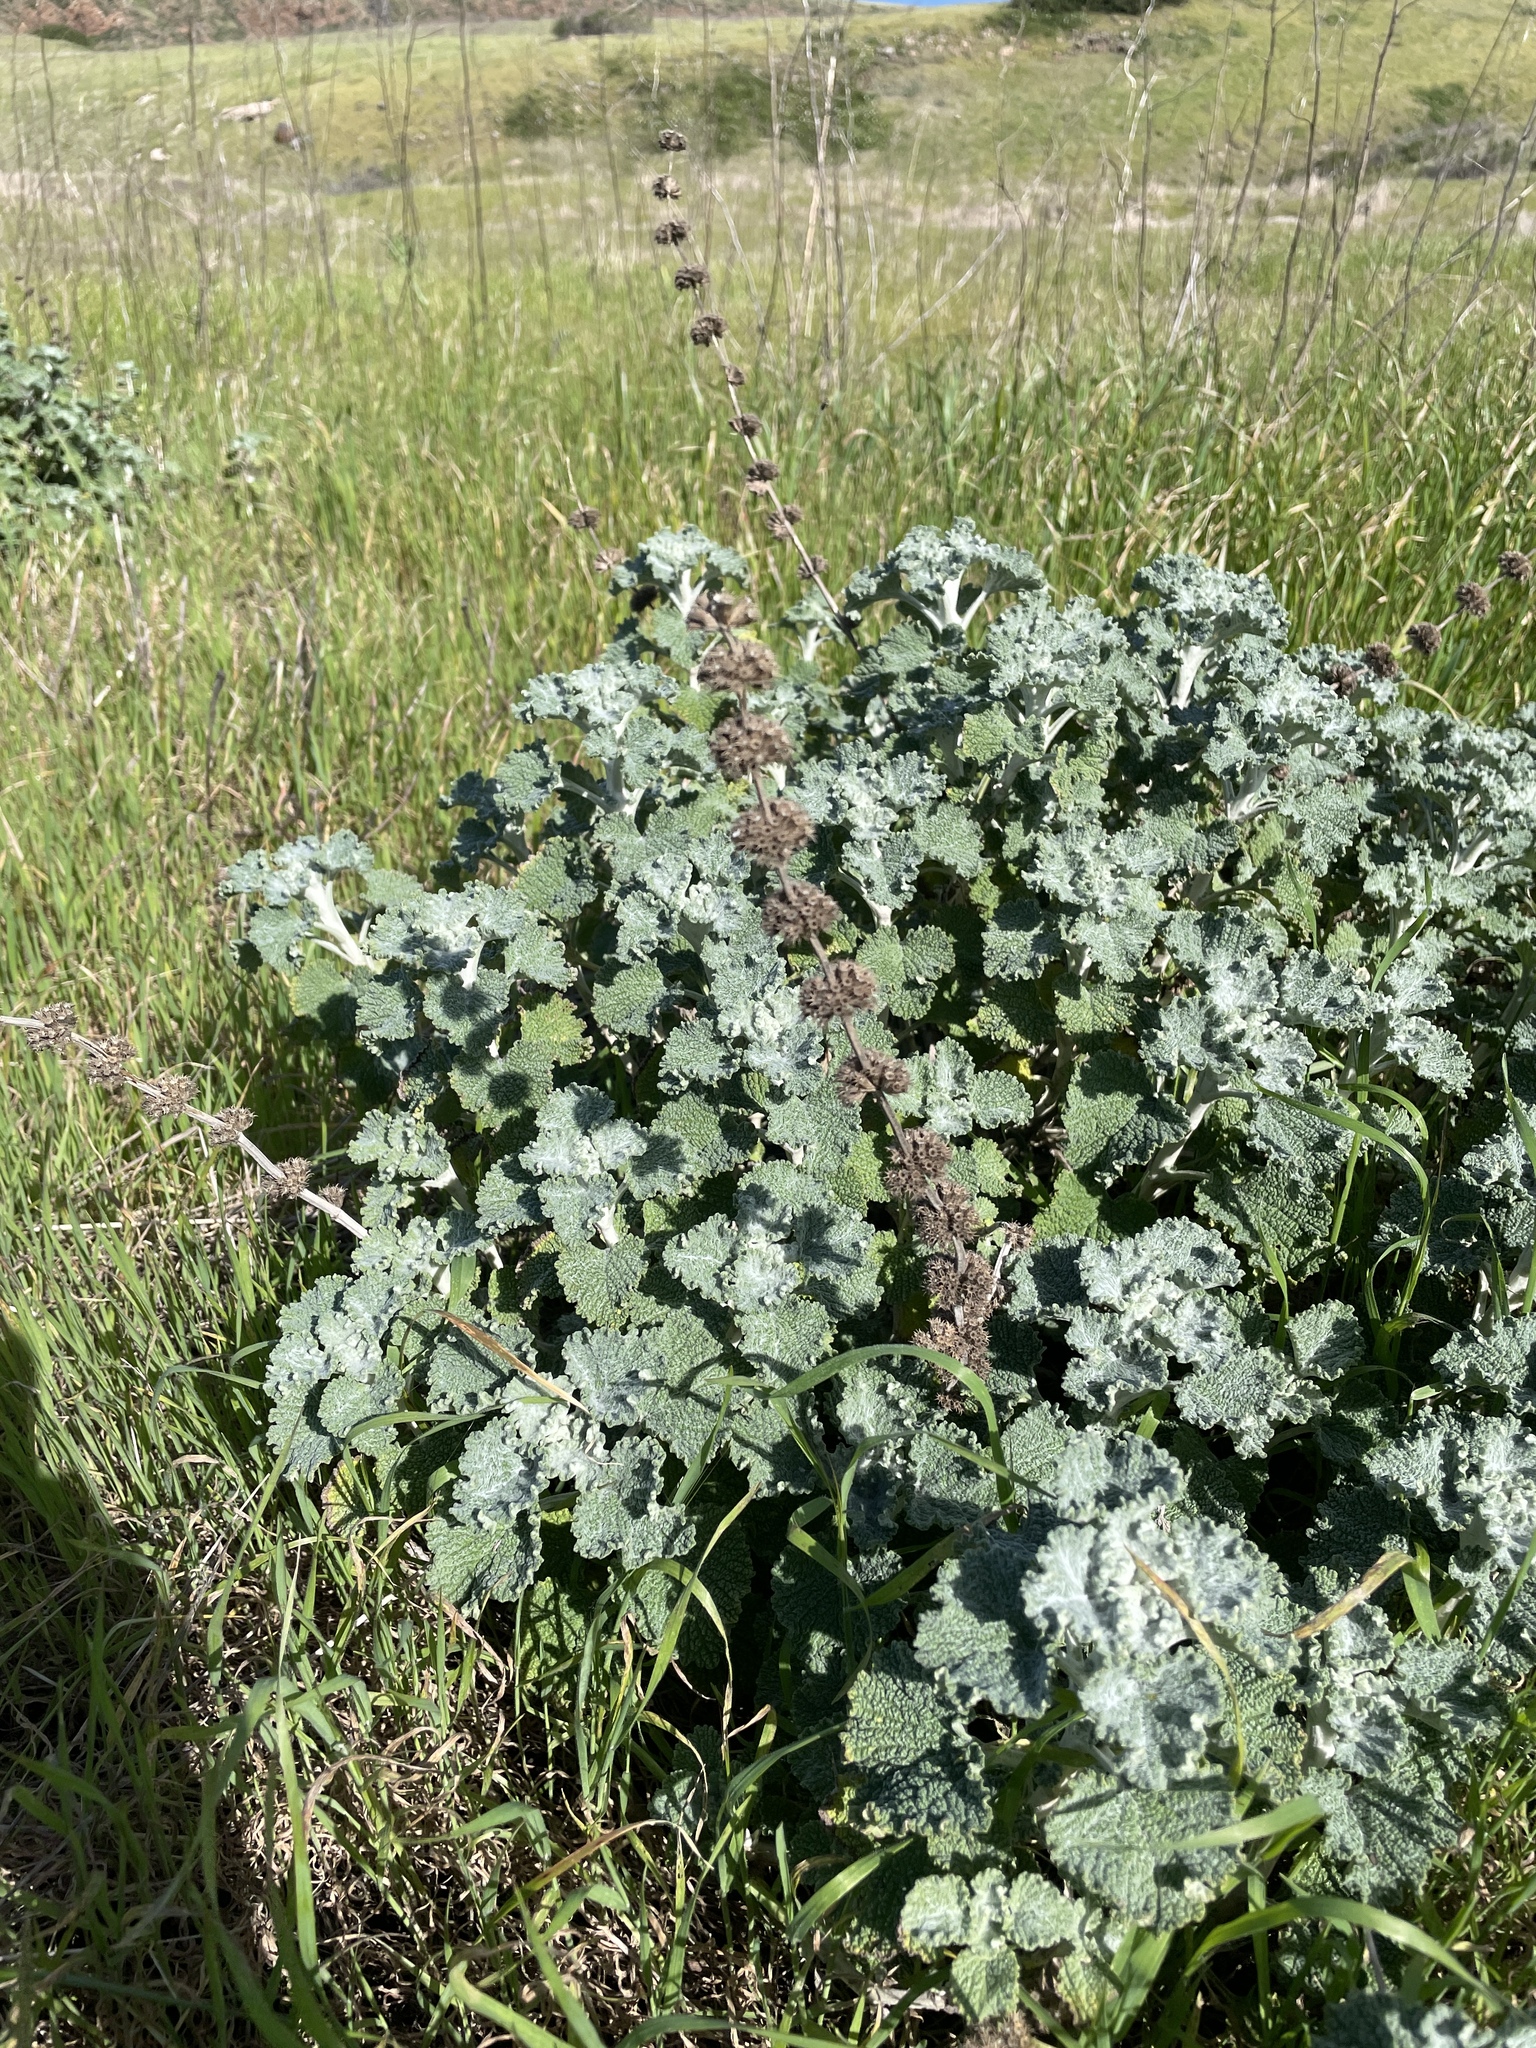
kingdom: Plantae
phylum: Tracheophyta
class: Magnoliopsida
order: Lamiales
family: Lamiaceae
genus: Marrubium
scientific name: Marrubium vulgare
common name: Horehound
